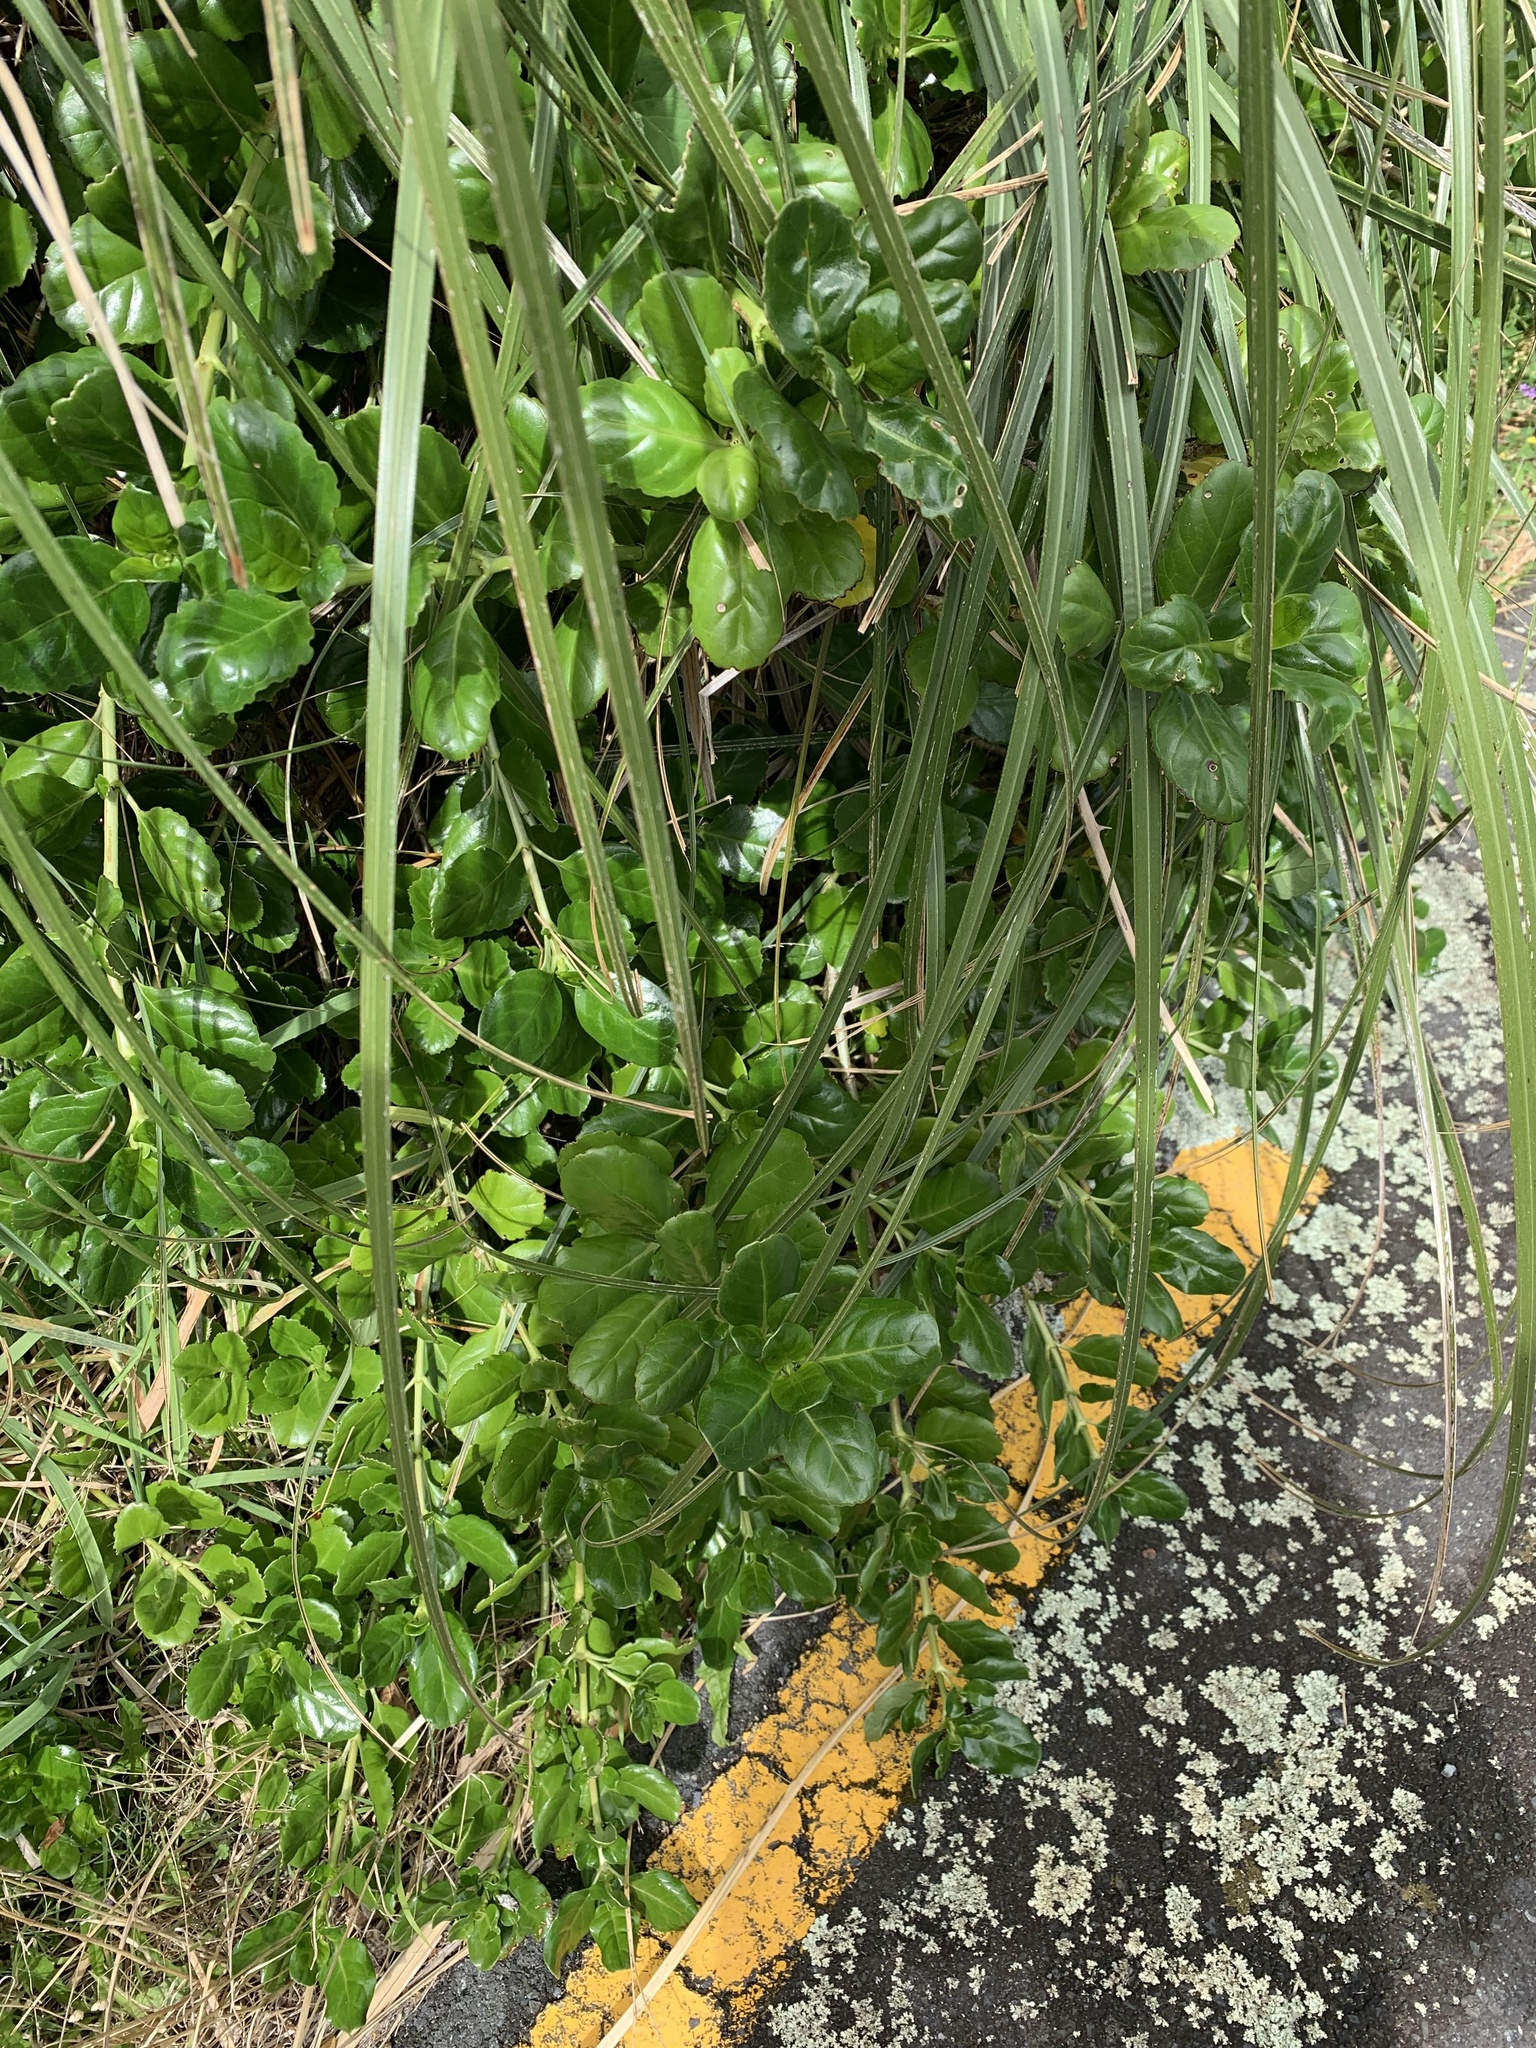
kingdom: Plantae
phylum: Tracheophyta
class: Magnoliopsida
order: Gentianales
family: Rubiaceae
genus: Coprosma
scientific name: Coprosma repens
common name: Tree bedstraw
